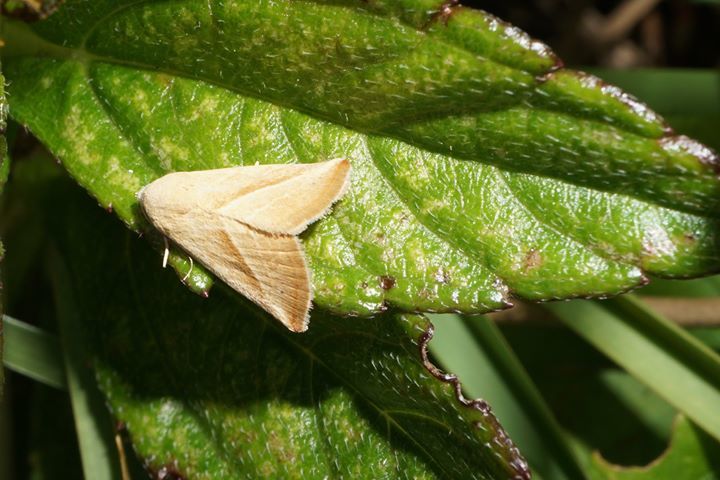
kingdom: Animalia
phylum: Arthropoda
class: Insecta
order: Lepidoptera
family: Noctuidae
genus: Eublemma
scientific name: Eublemma recta
